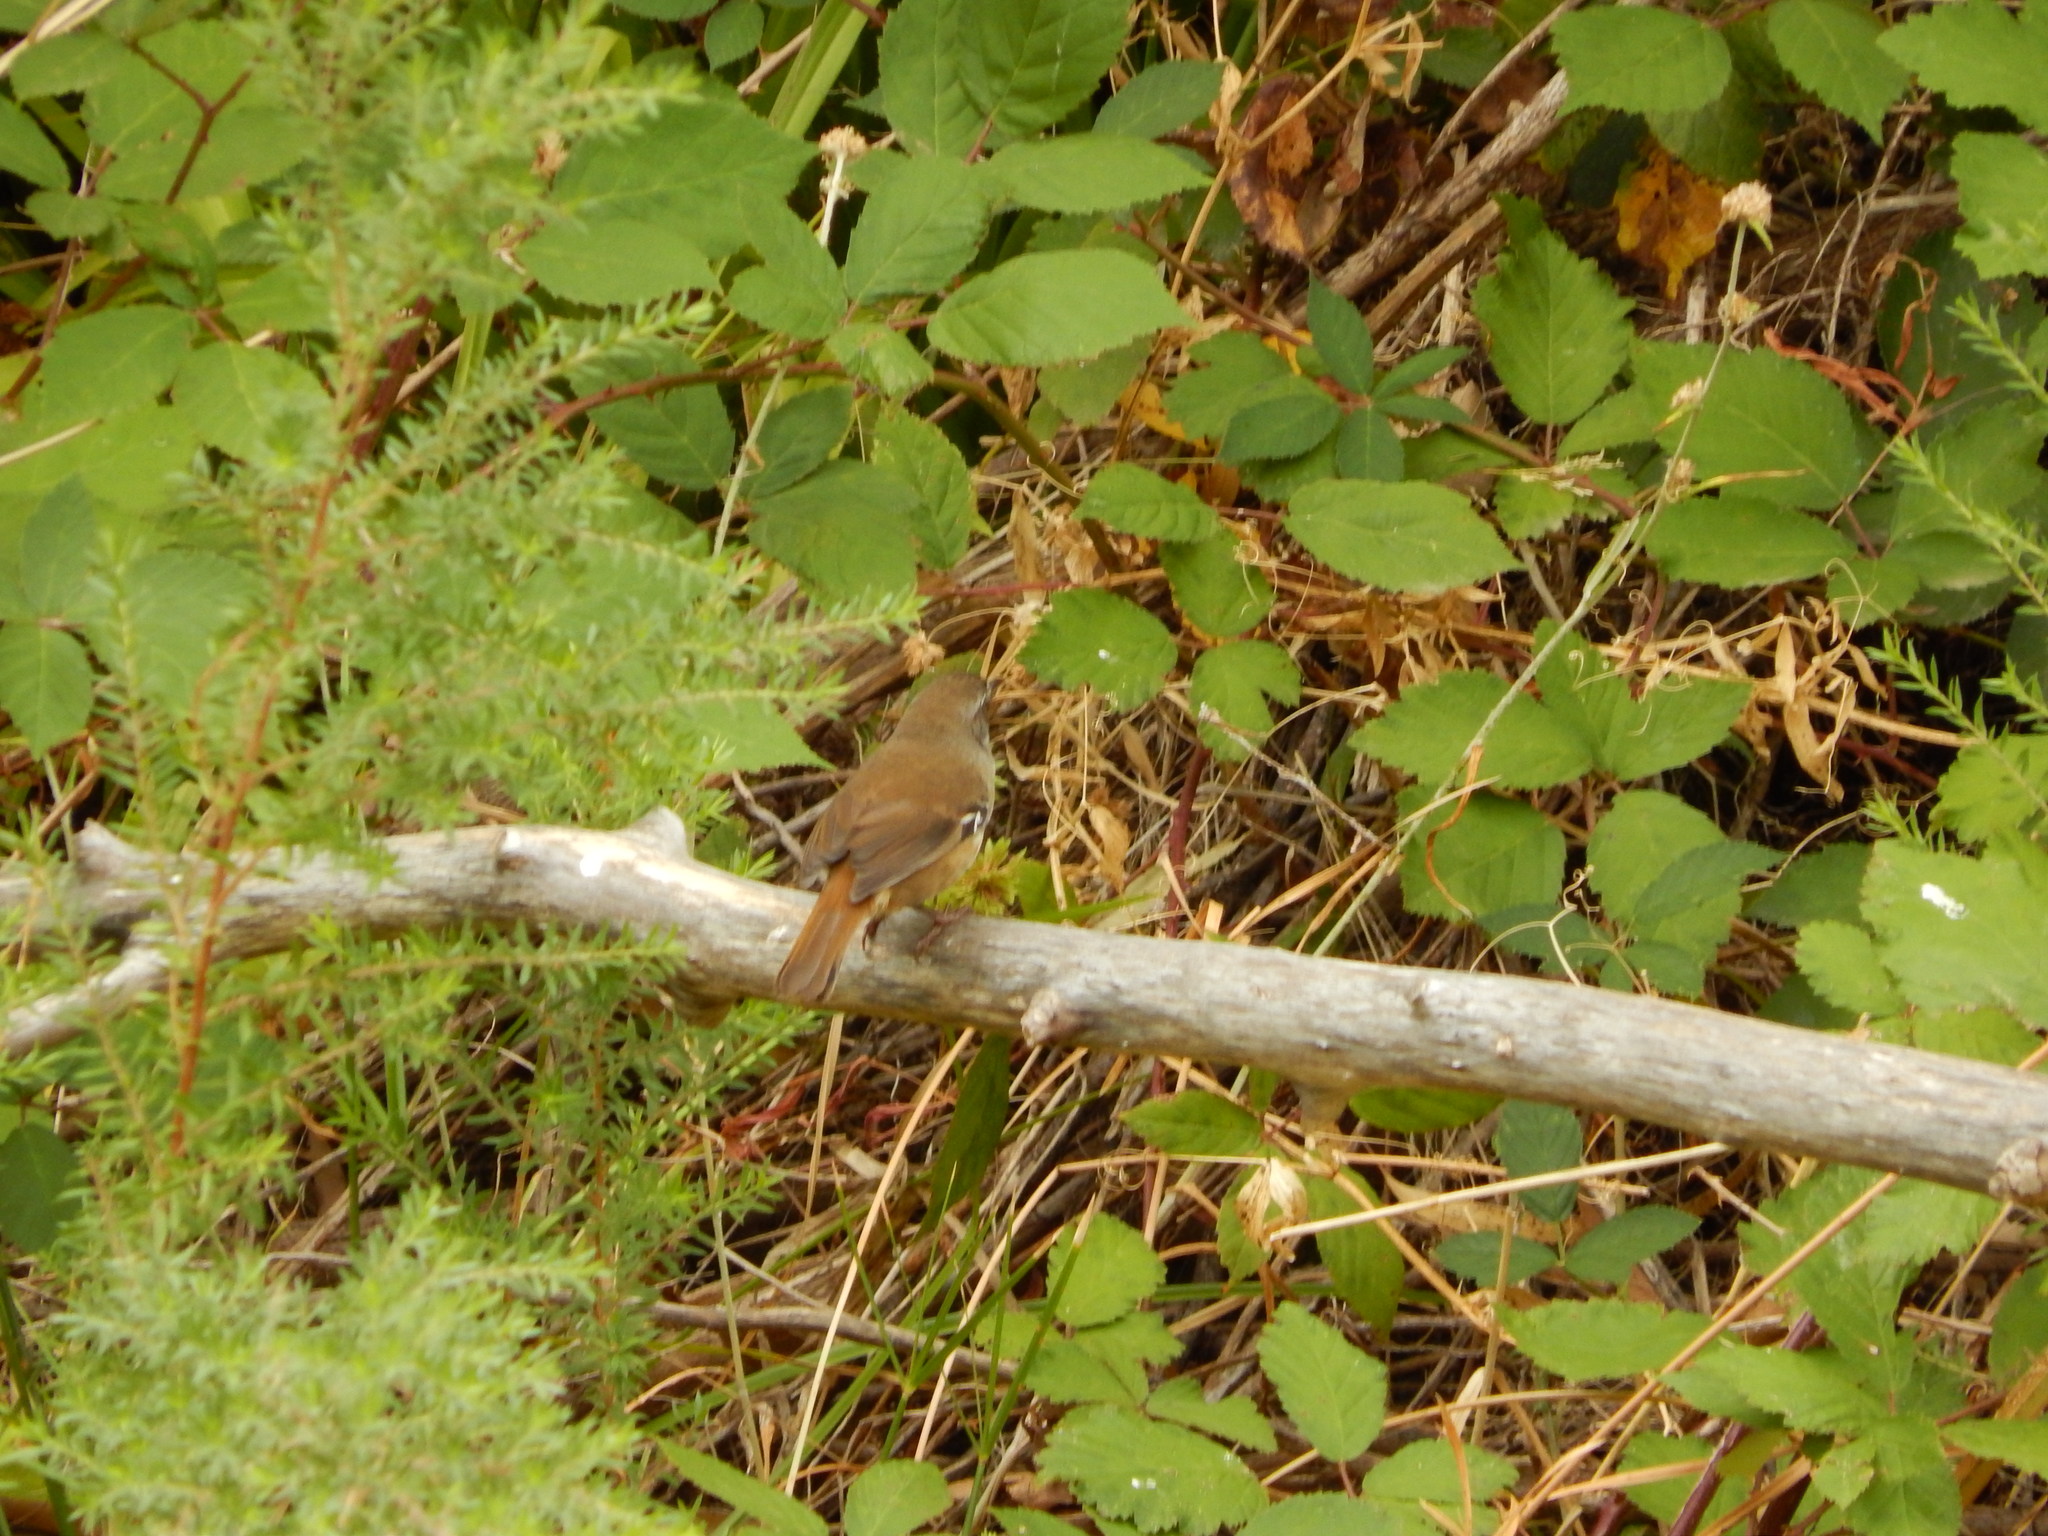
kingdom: Animalia
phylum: Chordata
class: Aves
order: Passeriformes
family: Acanthizidae
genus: Sericornis
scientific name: Sericornis frontalis
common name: White-browed scrubwren
